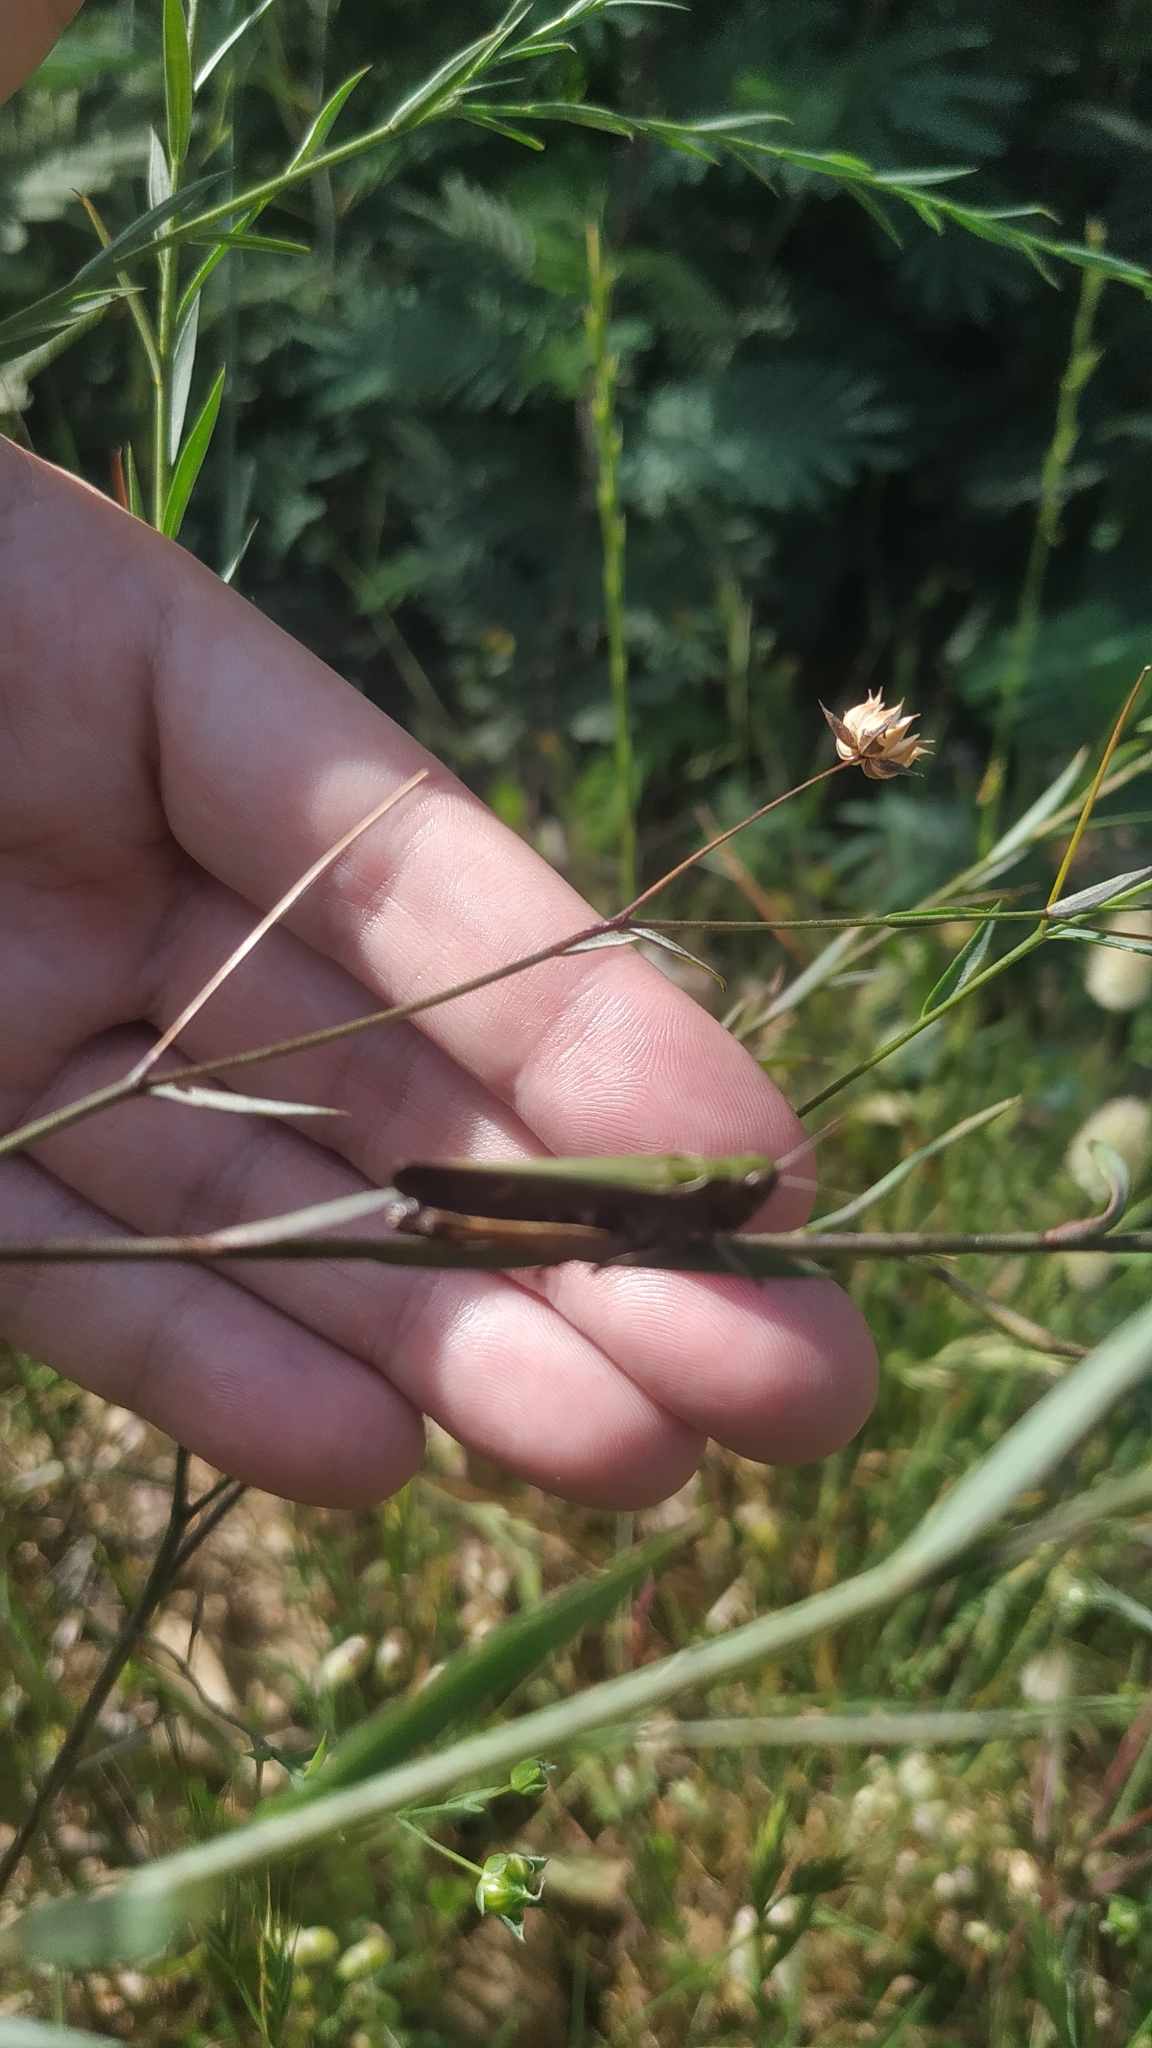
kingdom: Animalia
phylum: Arthropoda
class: Insecta
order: Orthoptera
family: Acrididae
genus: Omocestus
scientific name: Omocestus rufipes
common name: Woodland grasshopper
